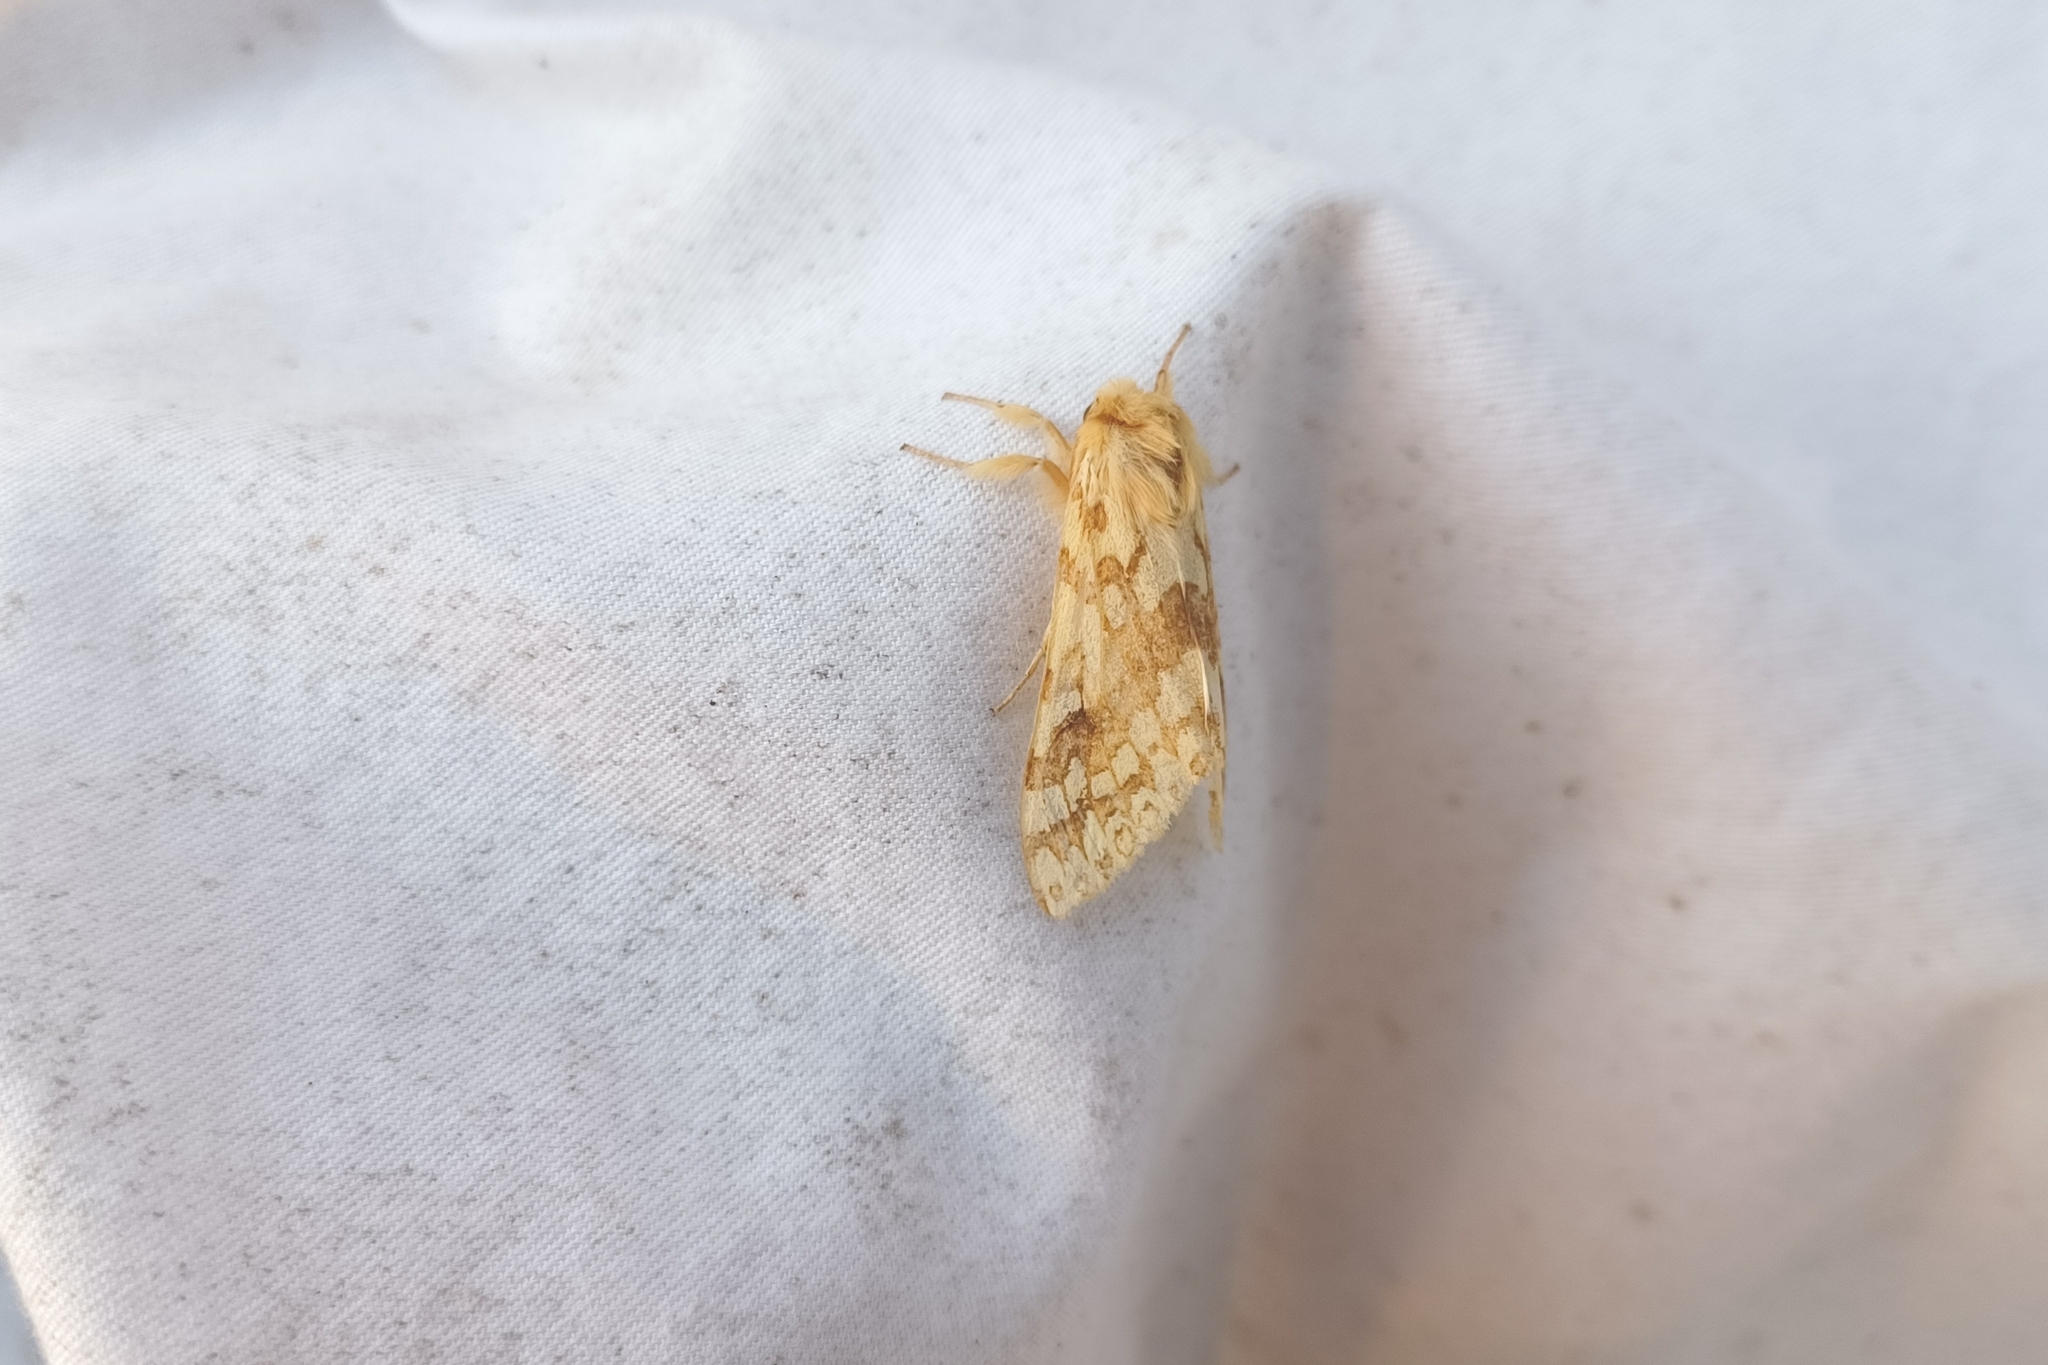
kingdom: Animalia
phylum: Arthropoda
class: Insecta
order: Lepidoptera
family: Erebidae
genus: Lophocampa
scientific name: Lophocampa maculata
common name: Spotted tussock moth
